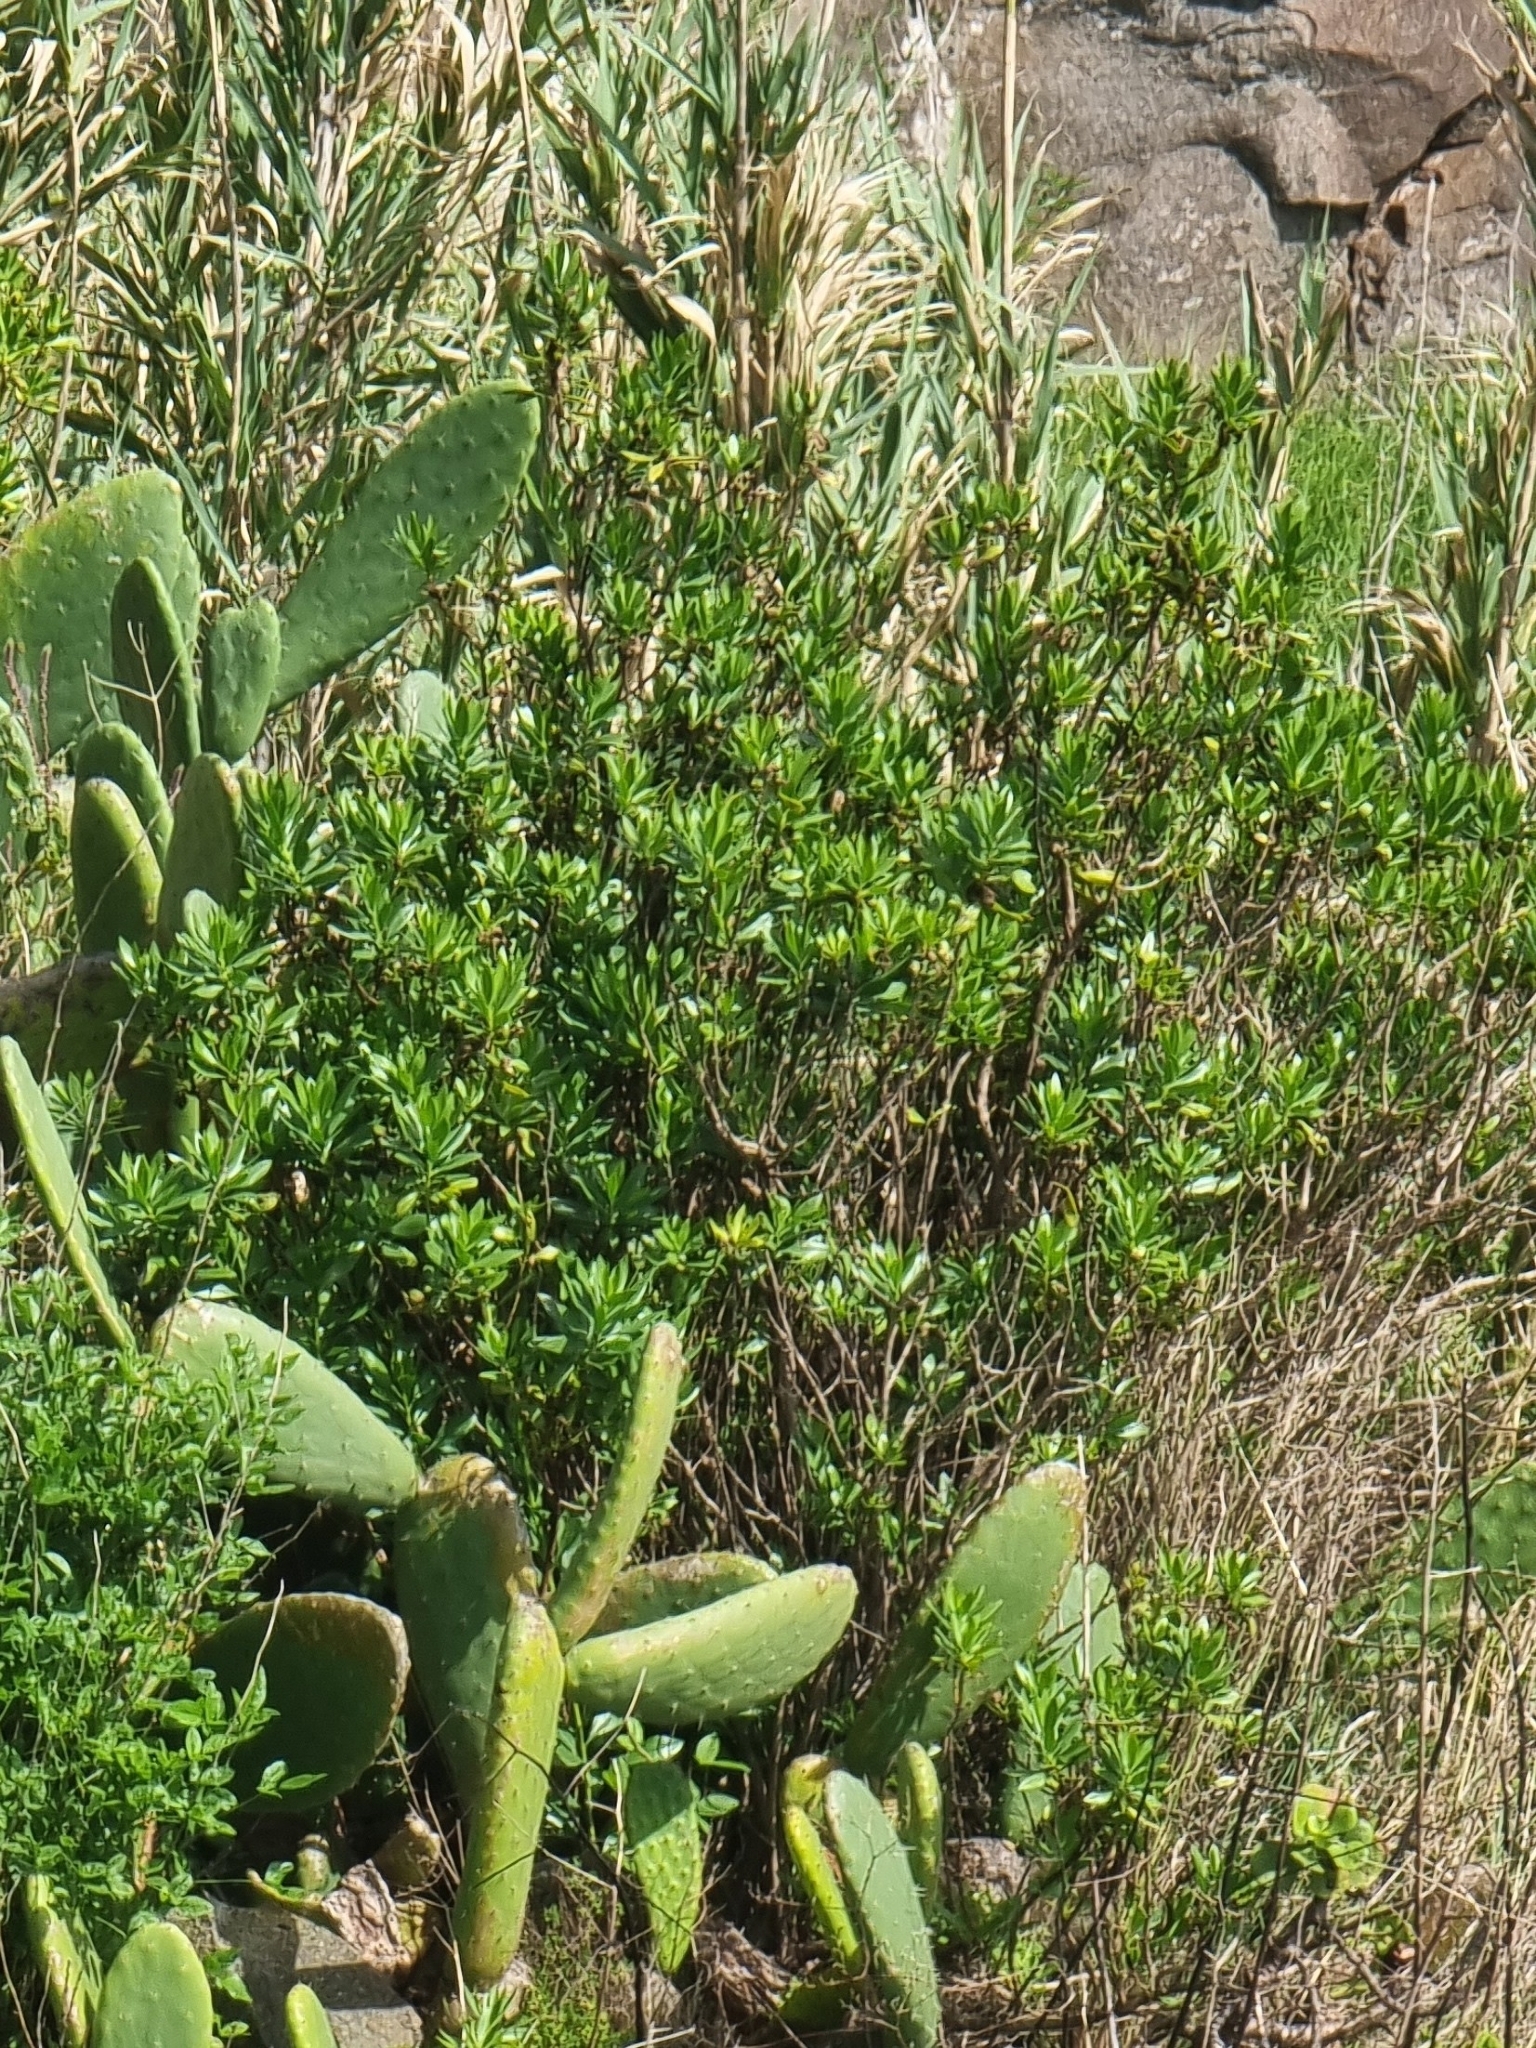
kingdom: Plantae
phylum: Tracheophyta
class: Magnoliopsida
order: Lamiales
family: Plantaginaceae
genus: Globularia
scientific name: Globularia salicina
